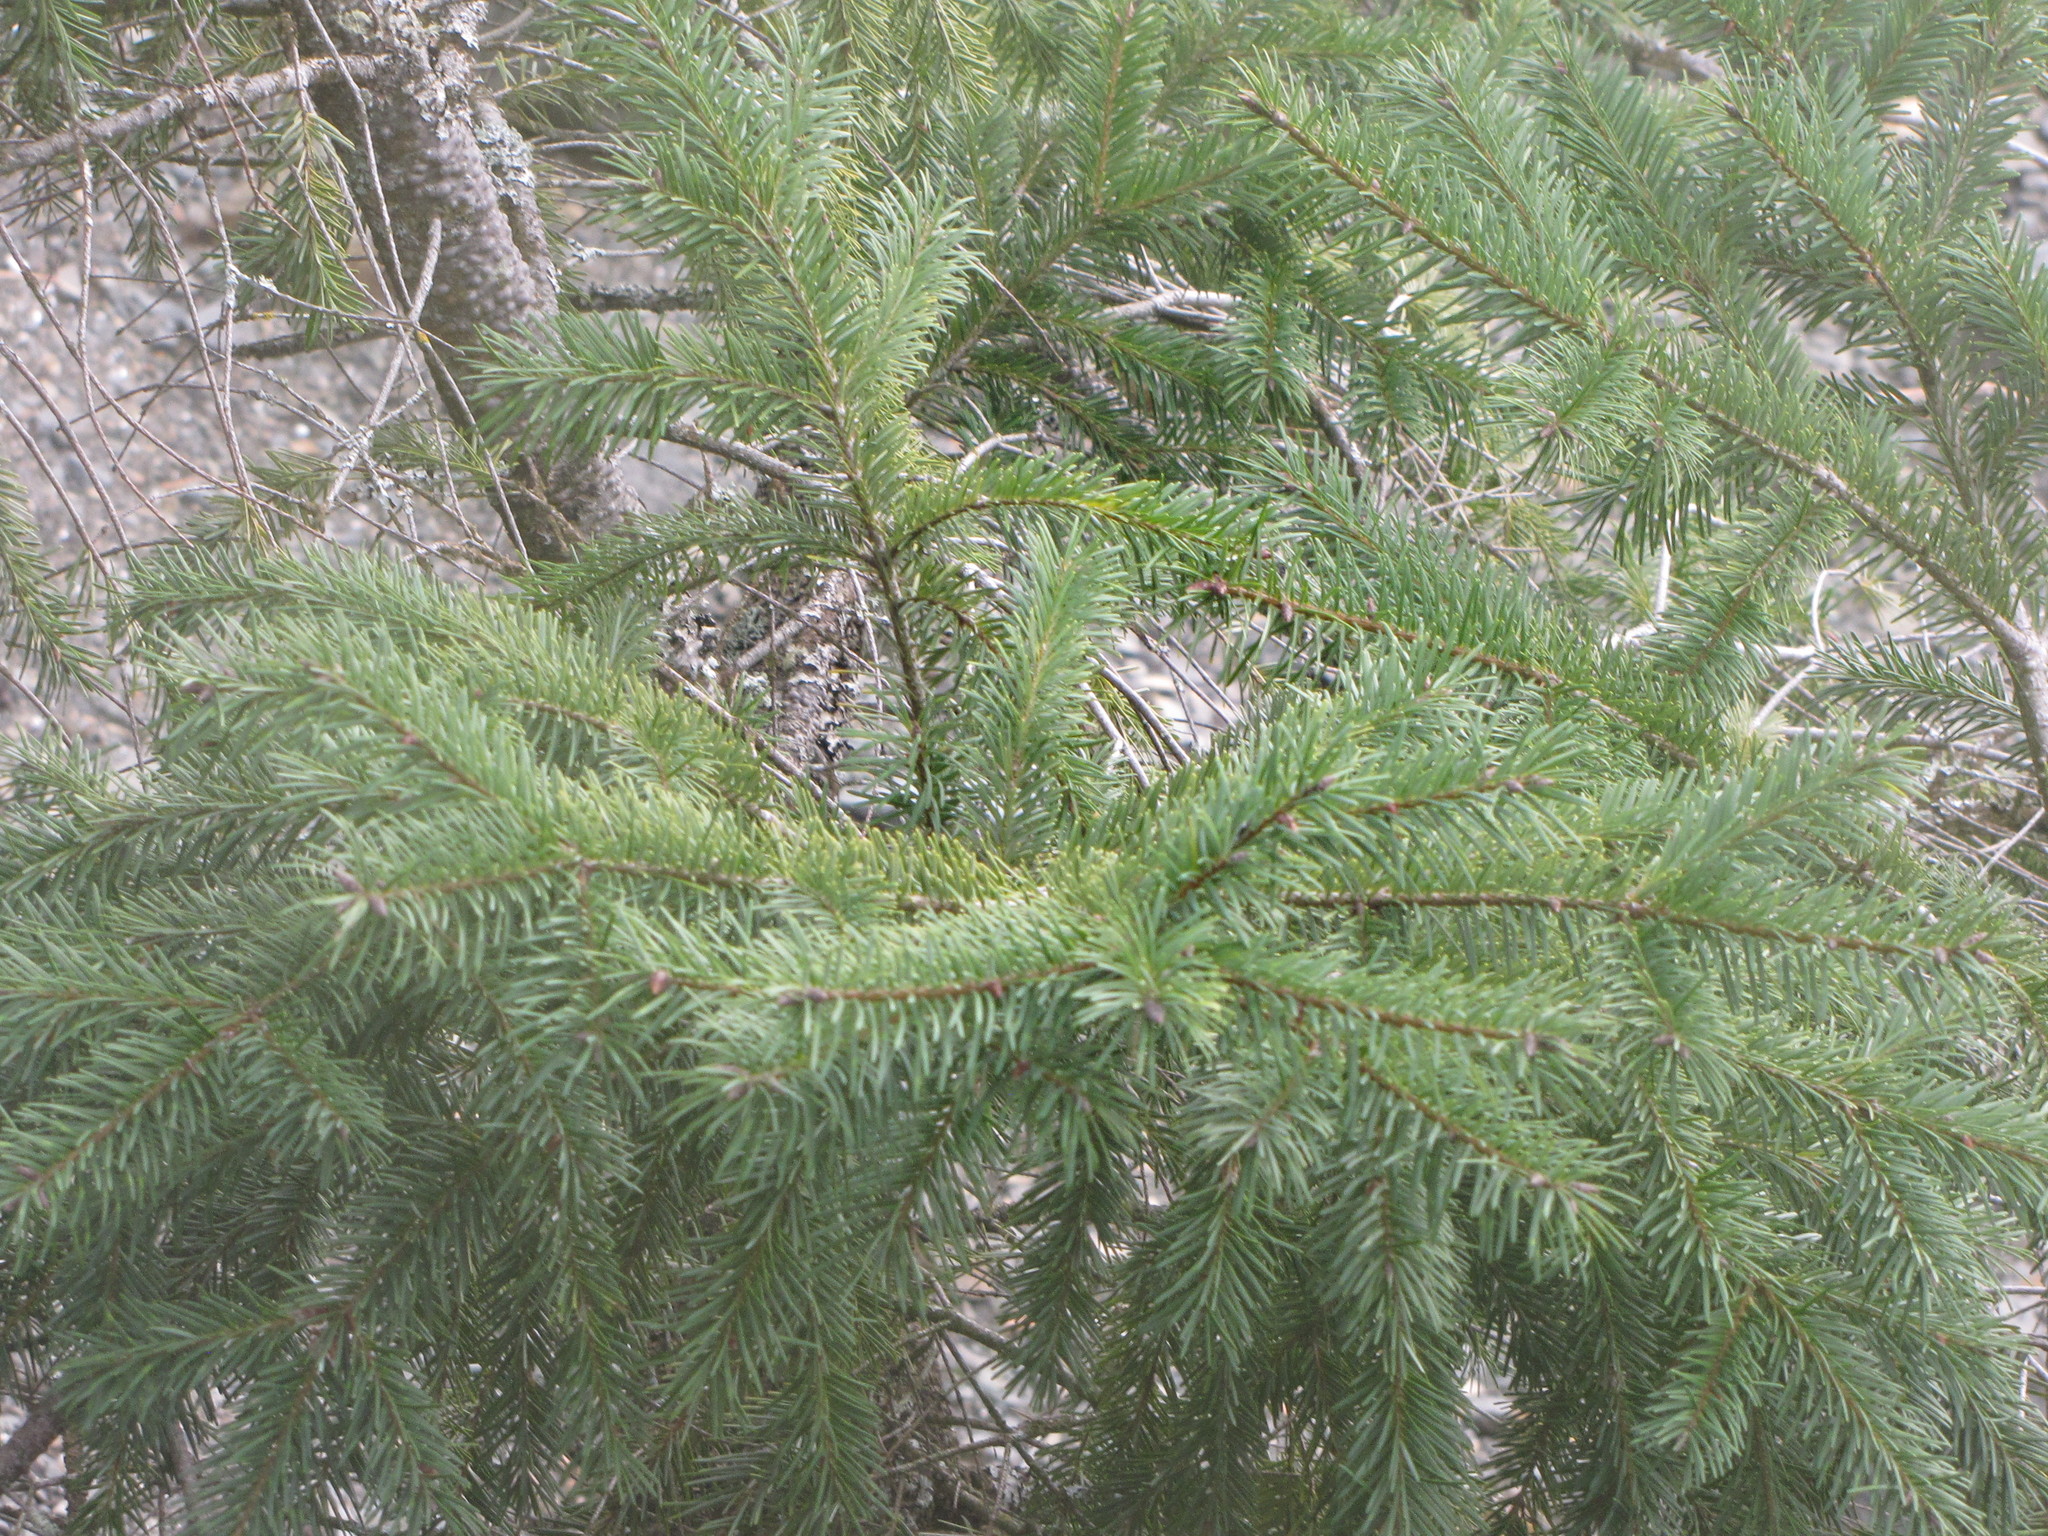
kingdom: Plantae
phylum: Tracheophyta
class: Pinopsida
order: Pinales
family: Pinaceae
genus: Pseudotsuga
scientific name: Pseudotsuga menziesii
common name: Douglas fir
